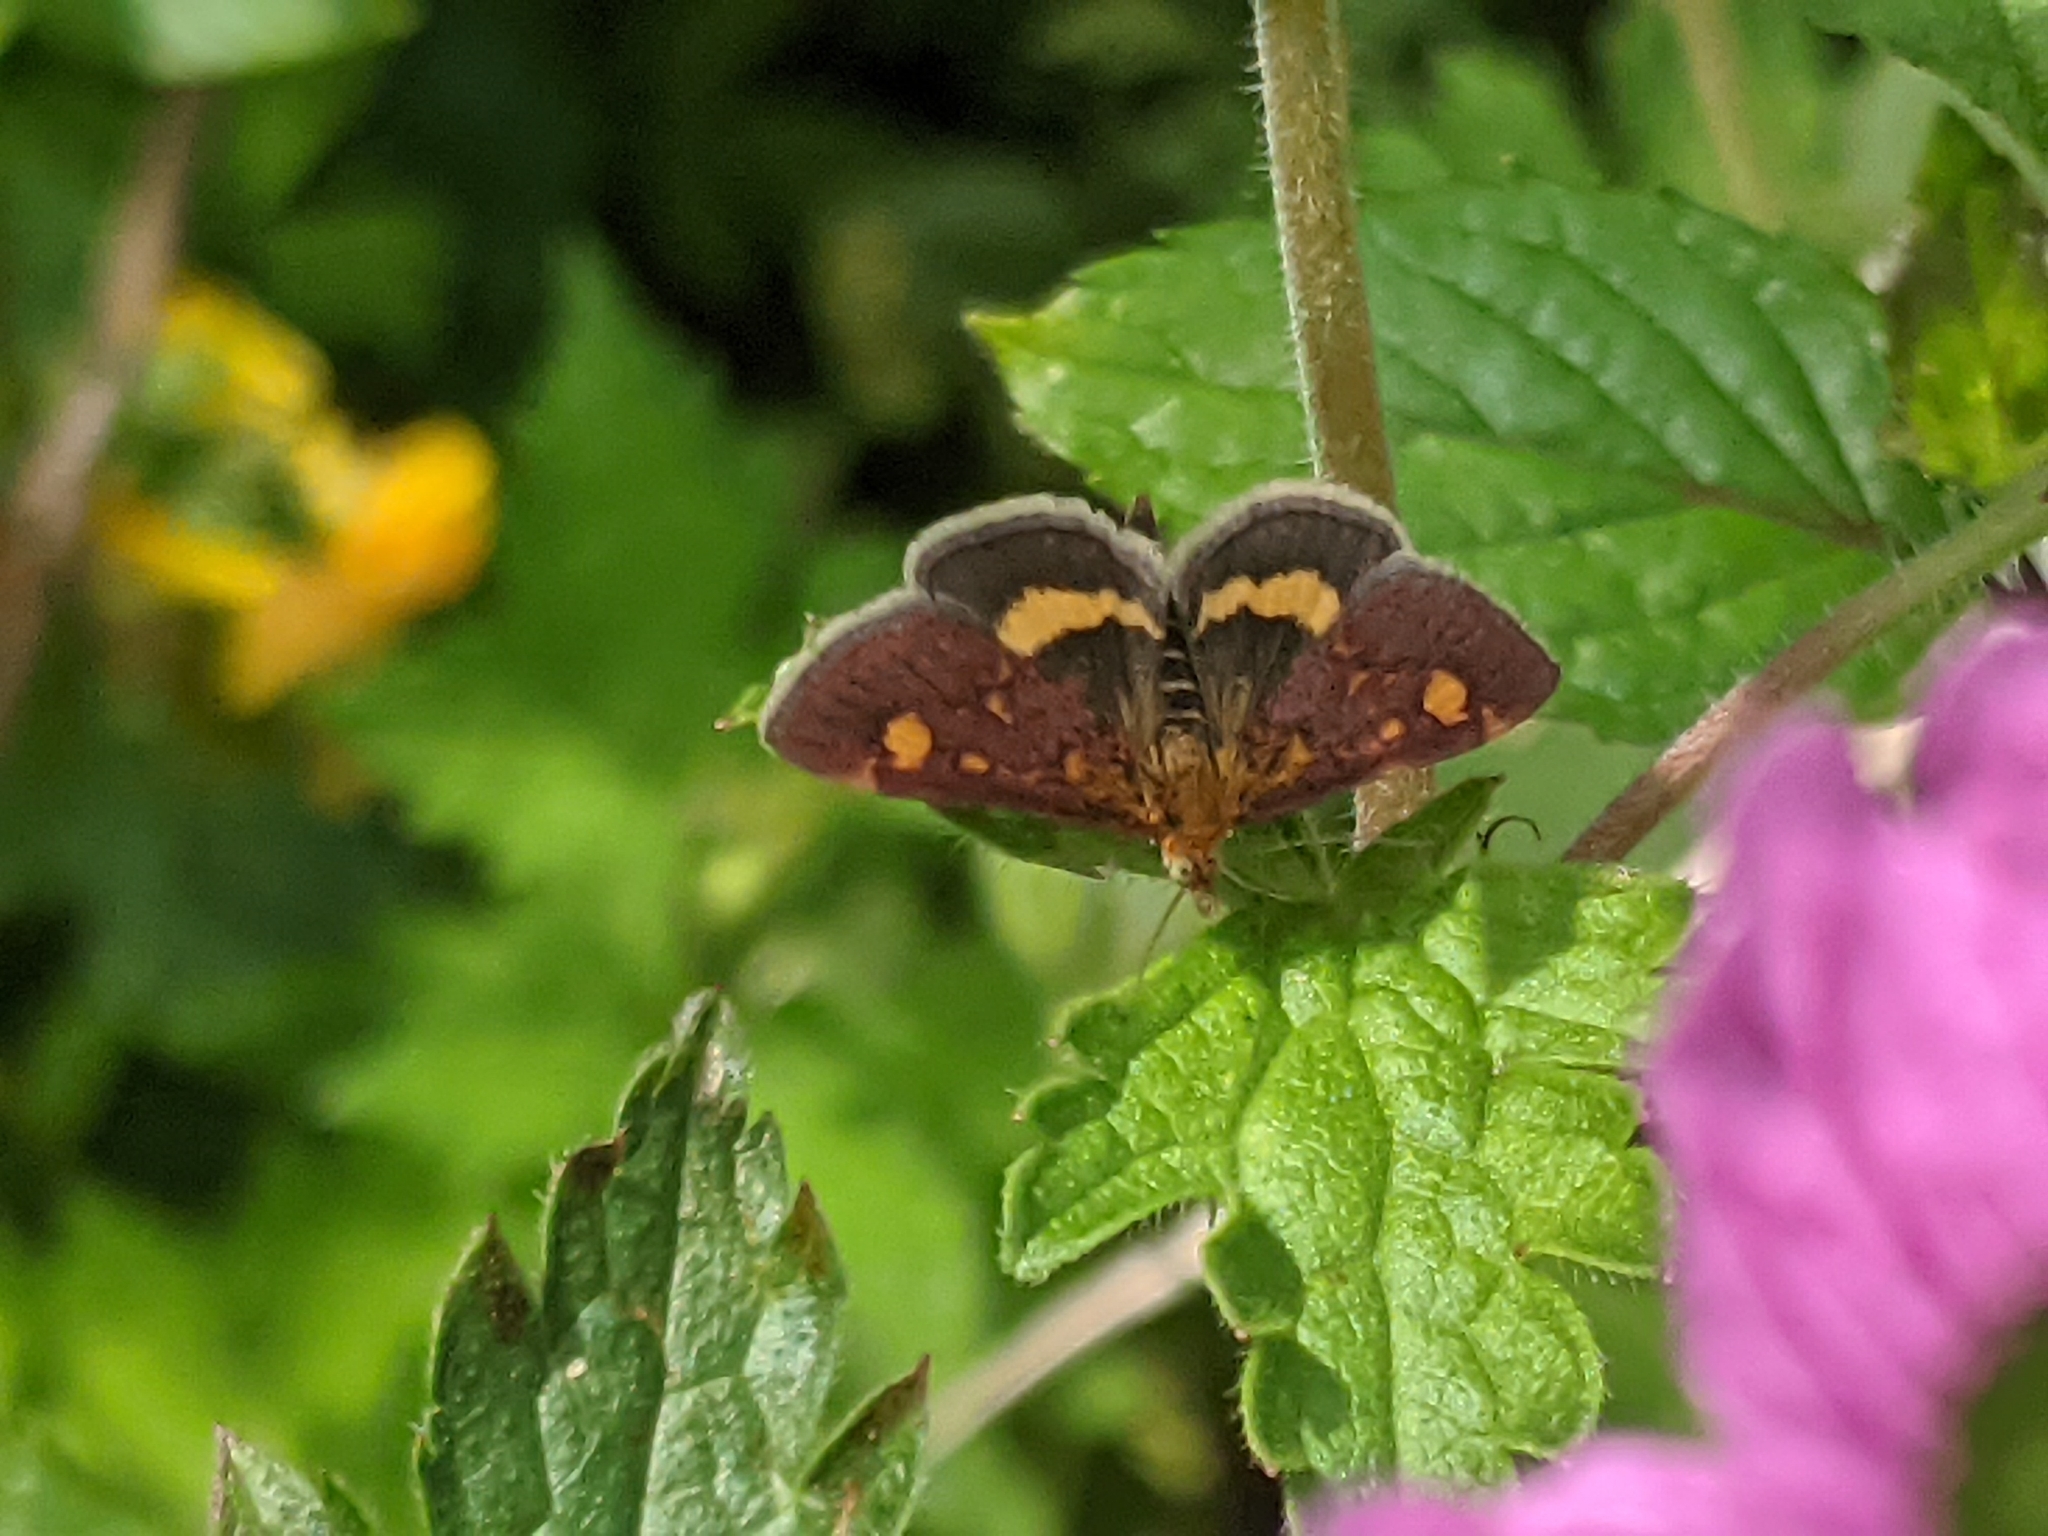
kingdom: Animalia
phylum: Arthropoda
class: Insecta
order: Lepidoptera
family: Crambidae
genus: Pyrausta
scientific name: Pyrausta aurata
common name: Small purple & gold
